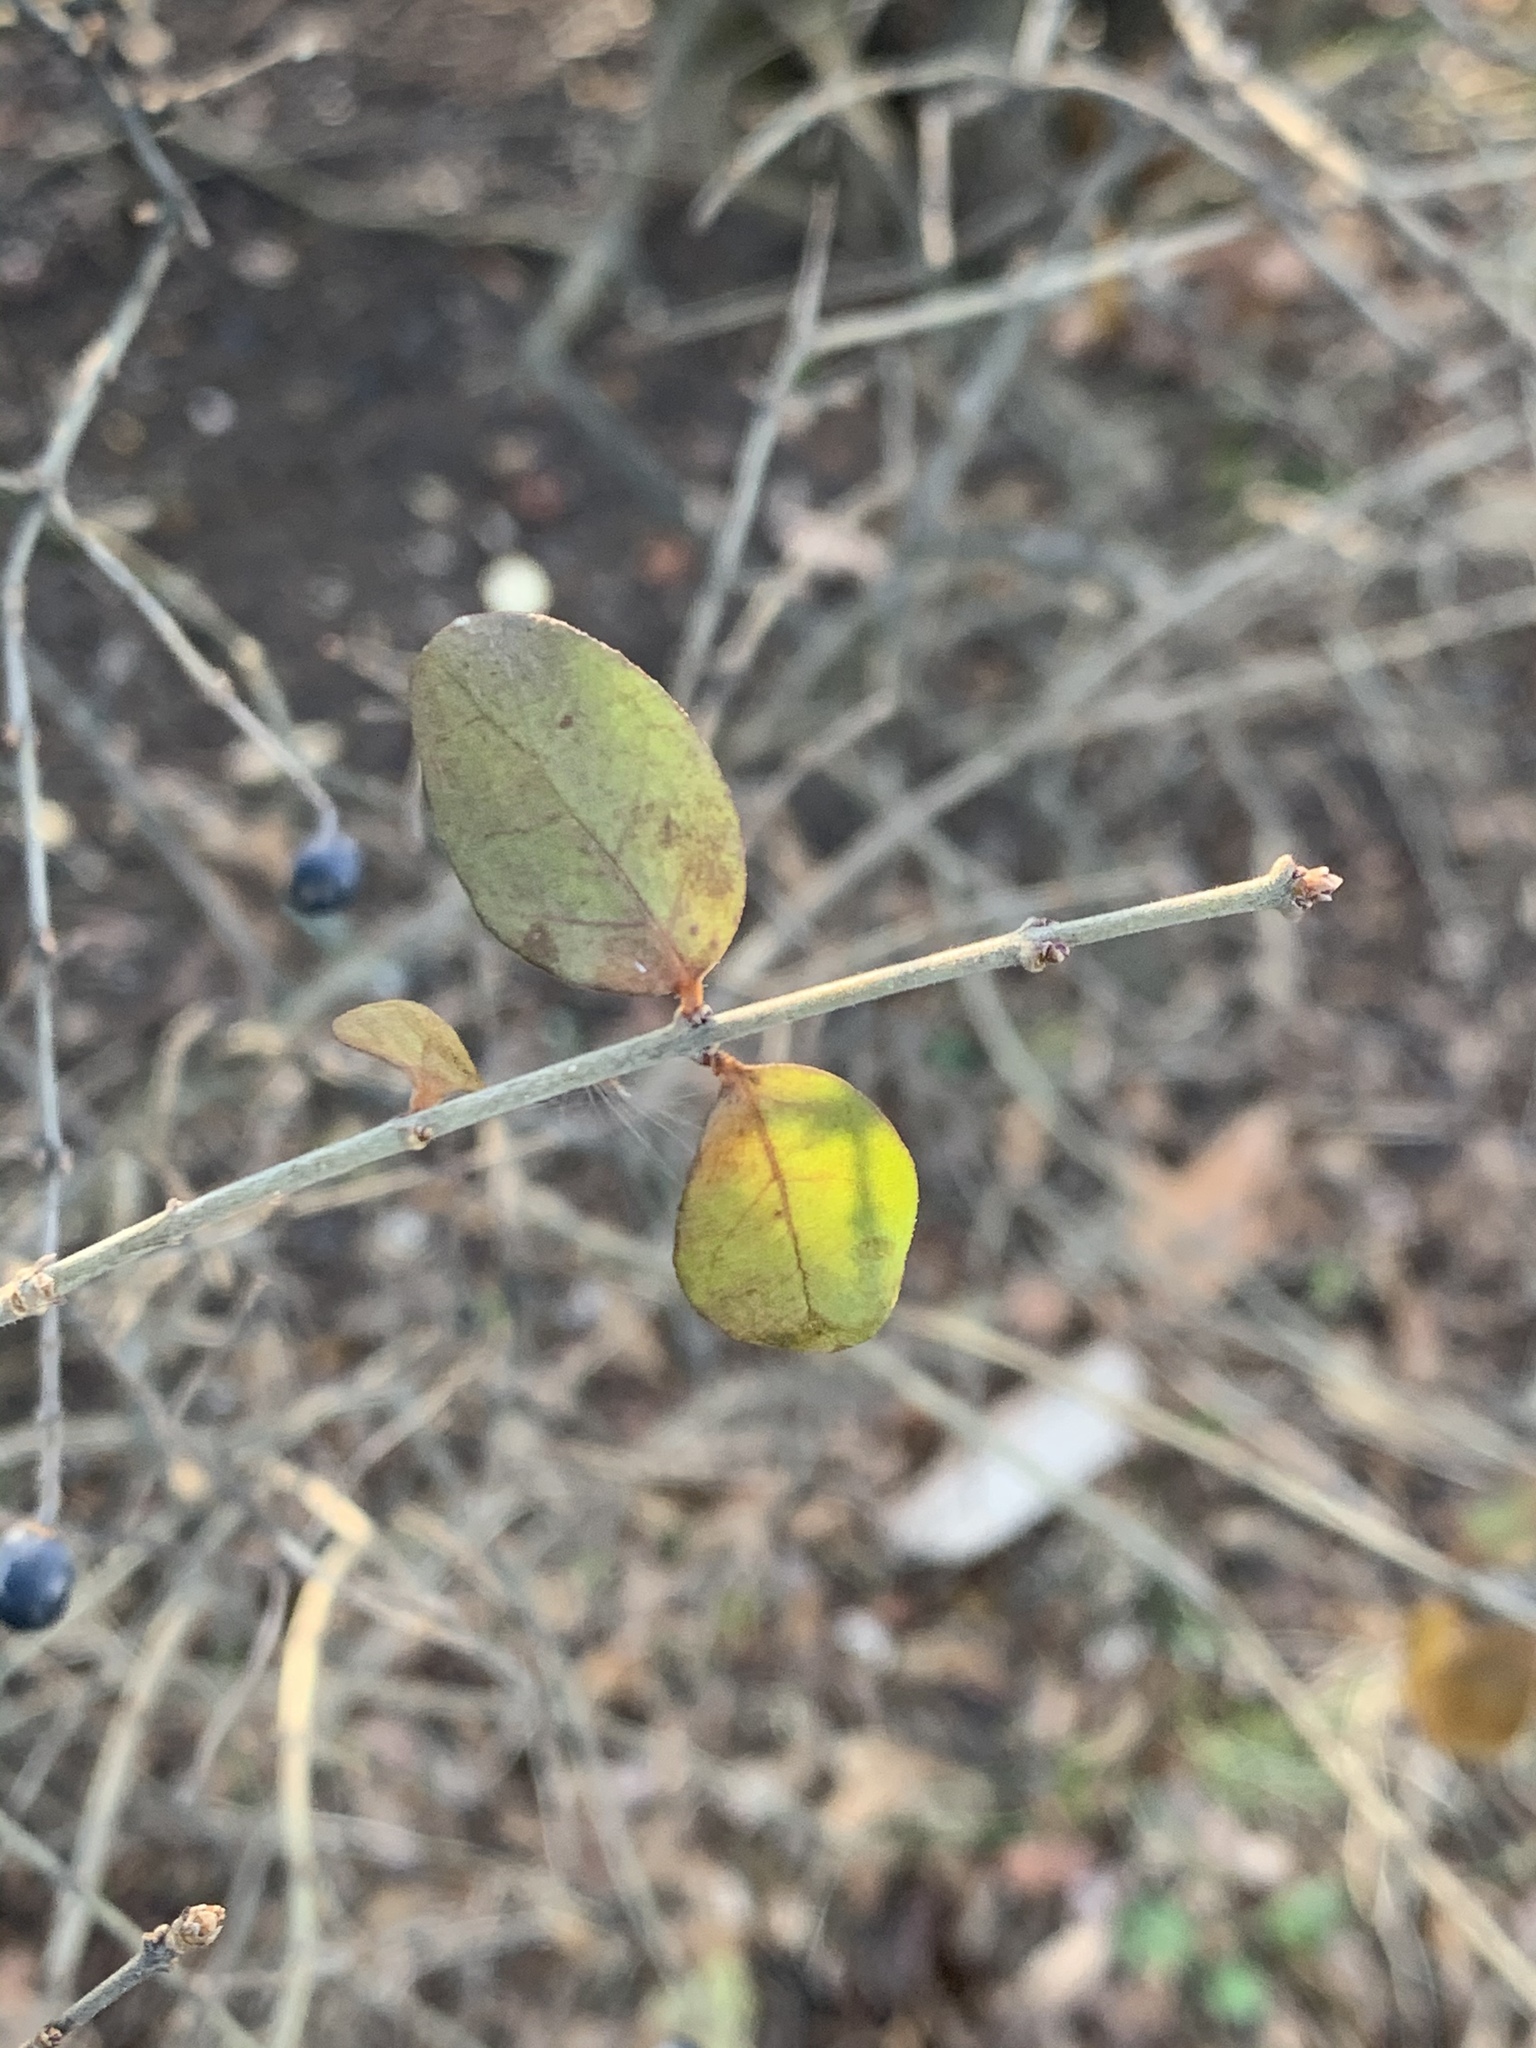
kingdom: Plantae
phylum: Tracheophyta
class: Magnoliopsida
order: Lamiales
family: Oleaceae
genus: Ligustrum
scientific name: Ligustrum obtusifolium
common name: Border privet
